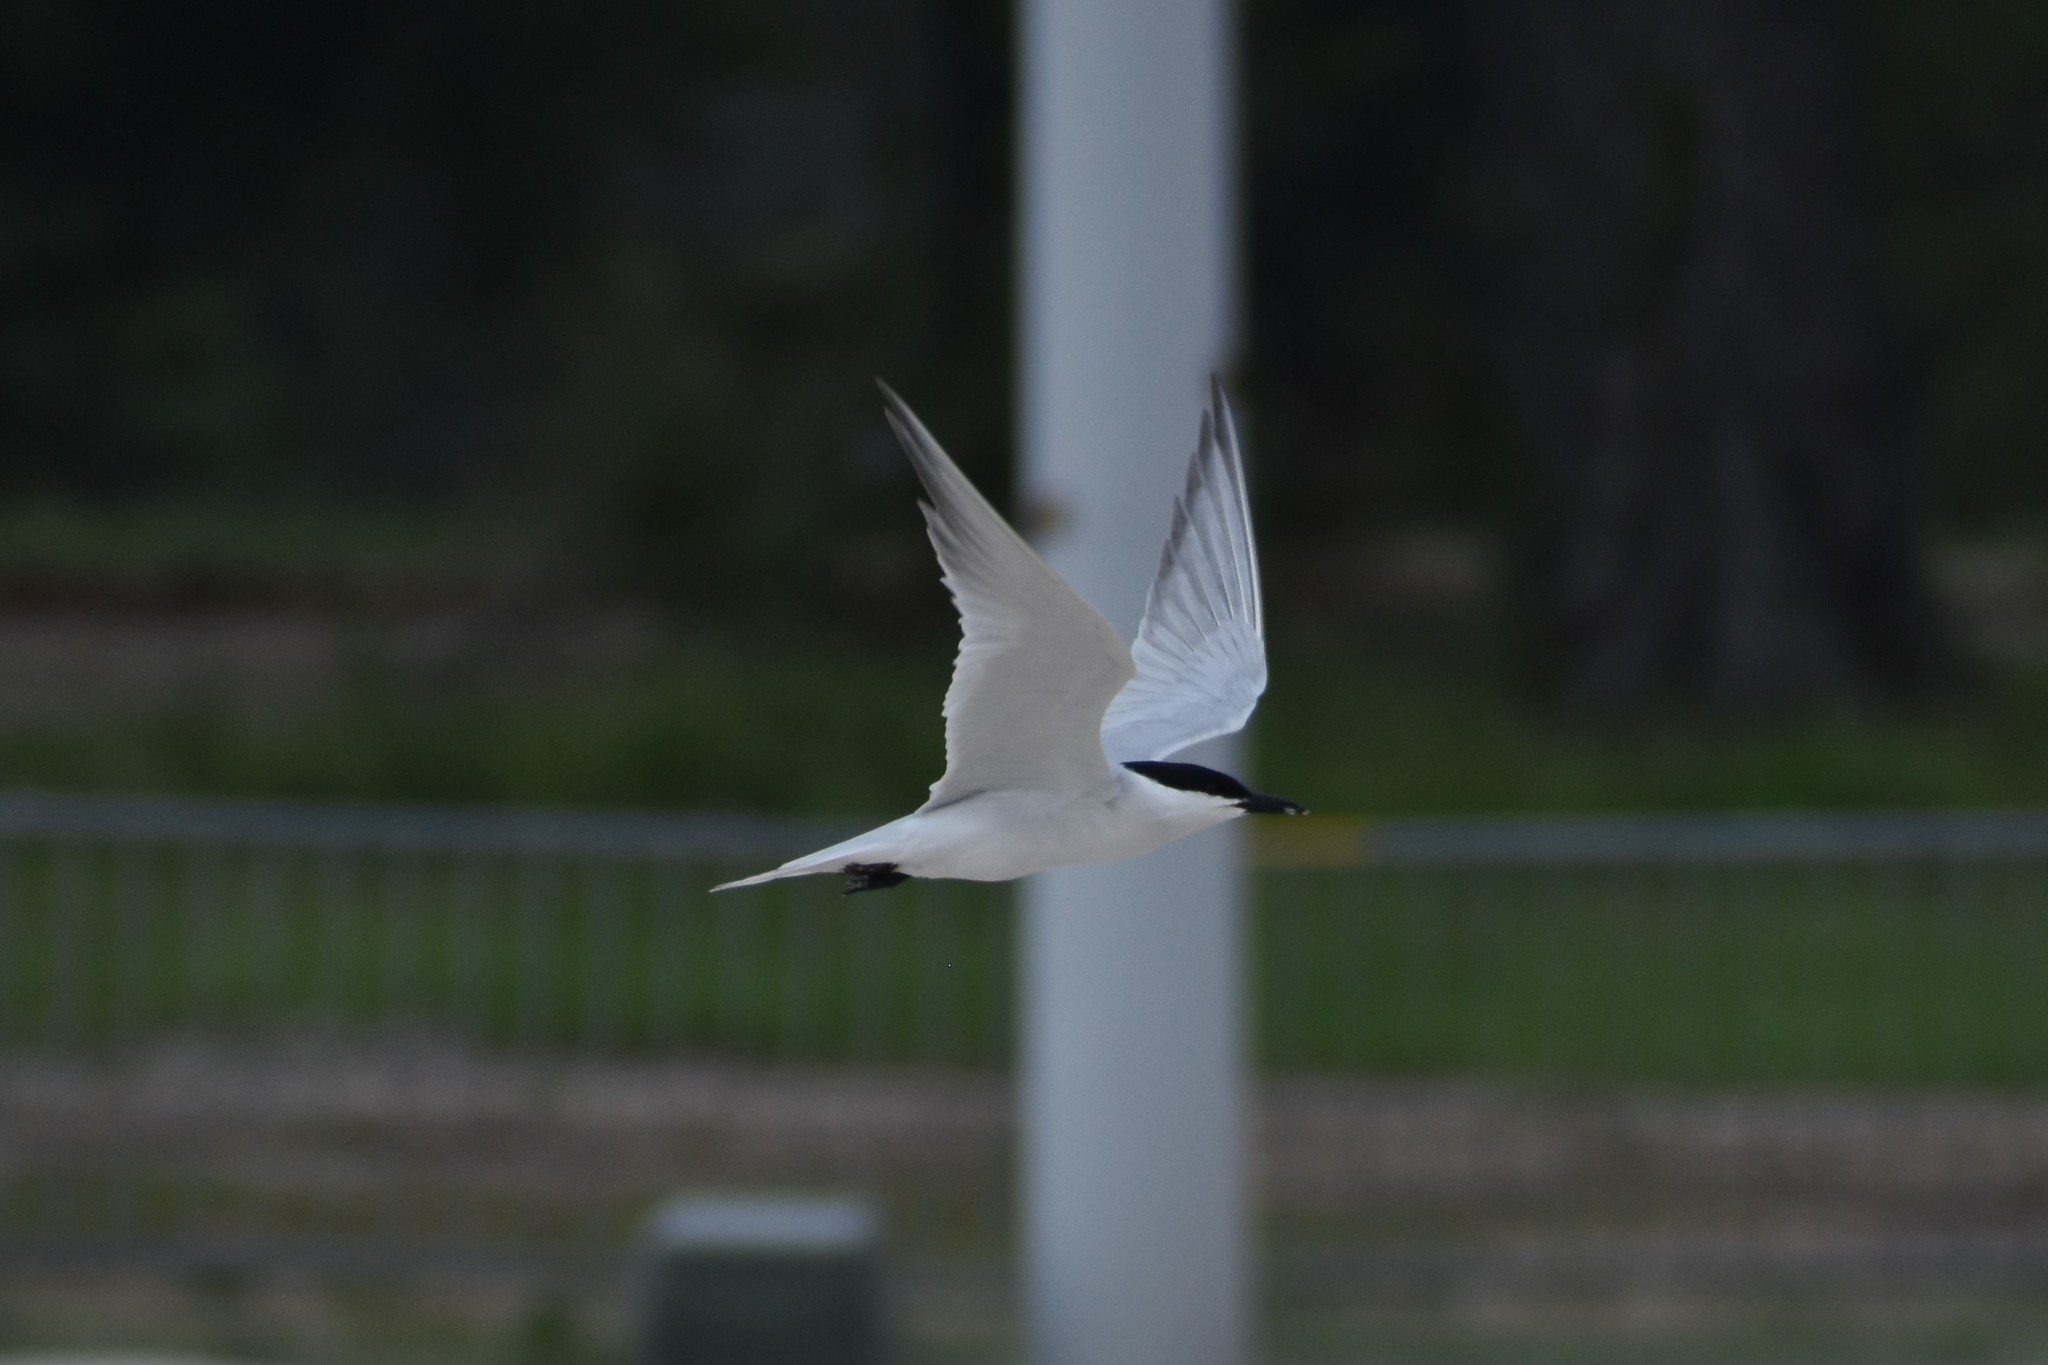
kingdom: Animalia
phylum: Chordata
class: Aves
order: Charadriiformes
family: Laridae
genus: Gelochelidon
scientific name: Gelochelidon nilotica
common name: Gull-billed tern
